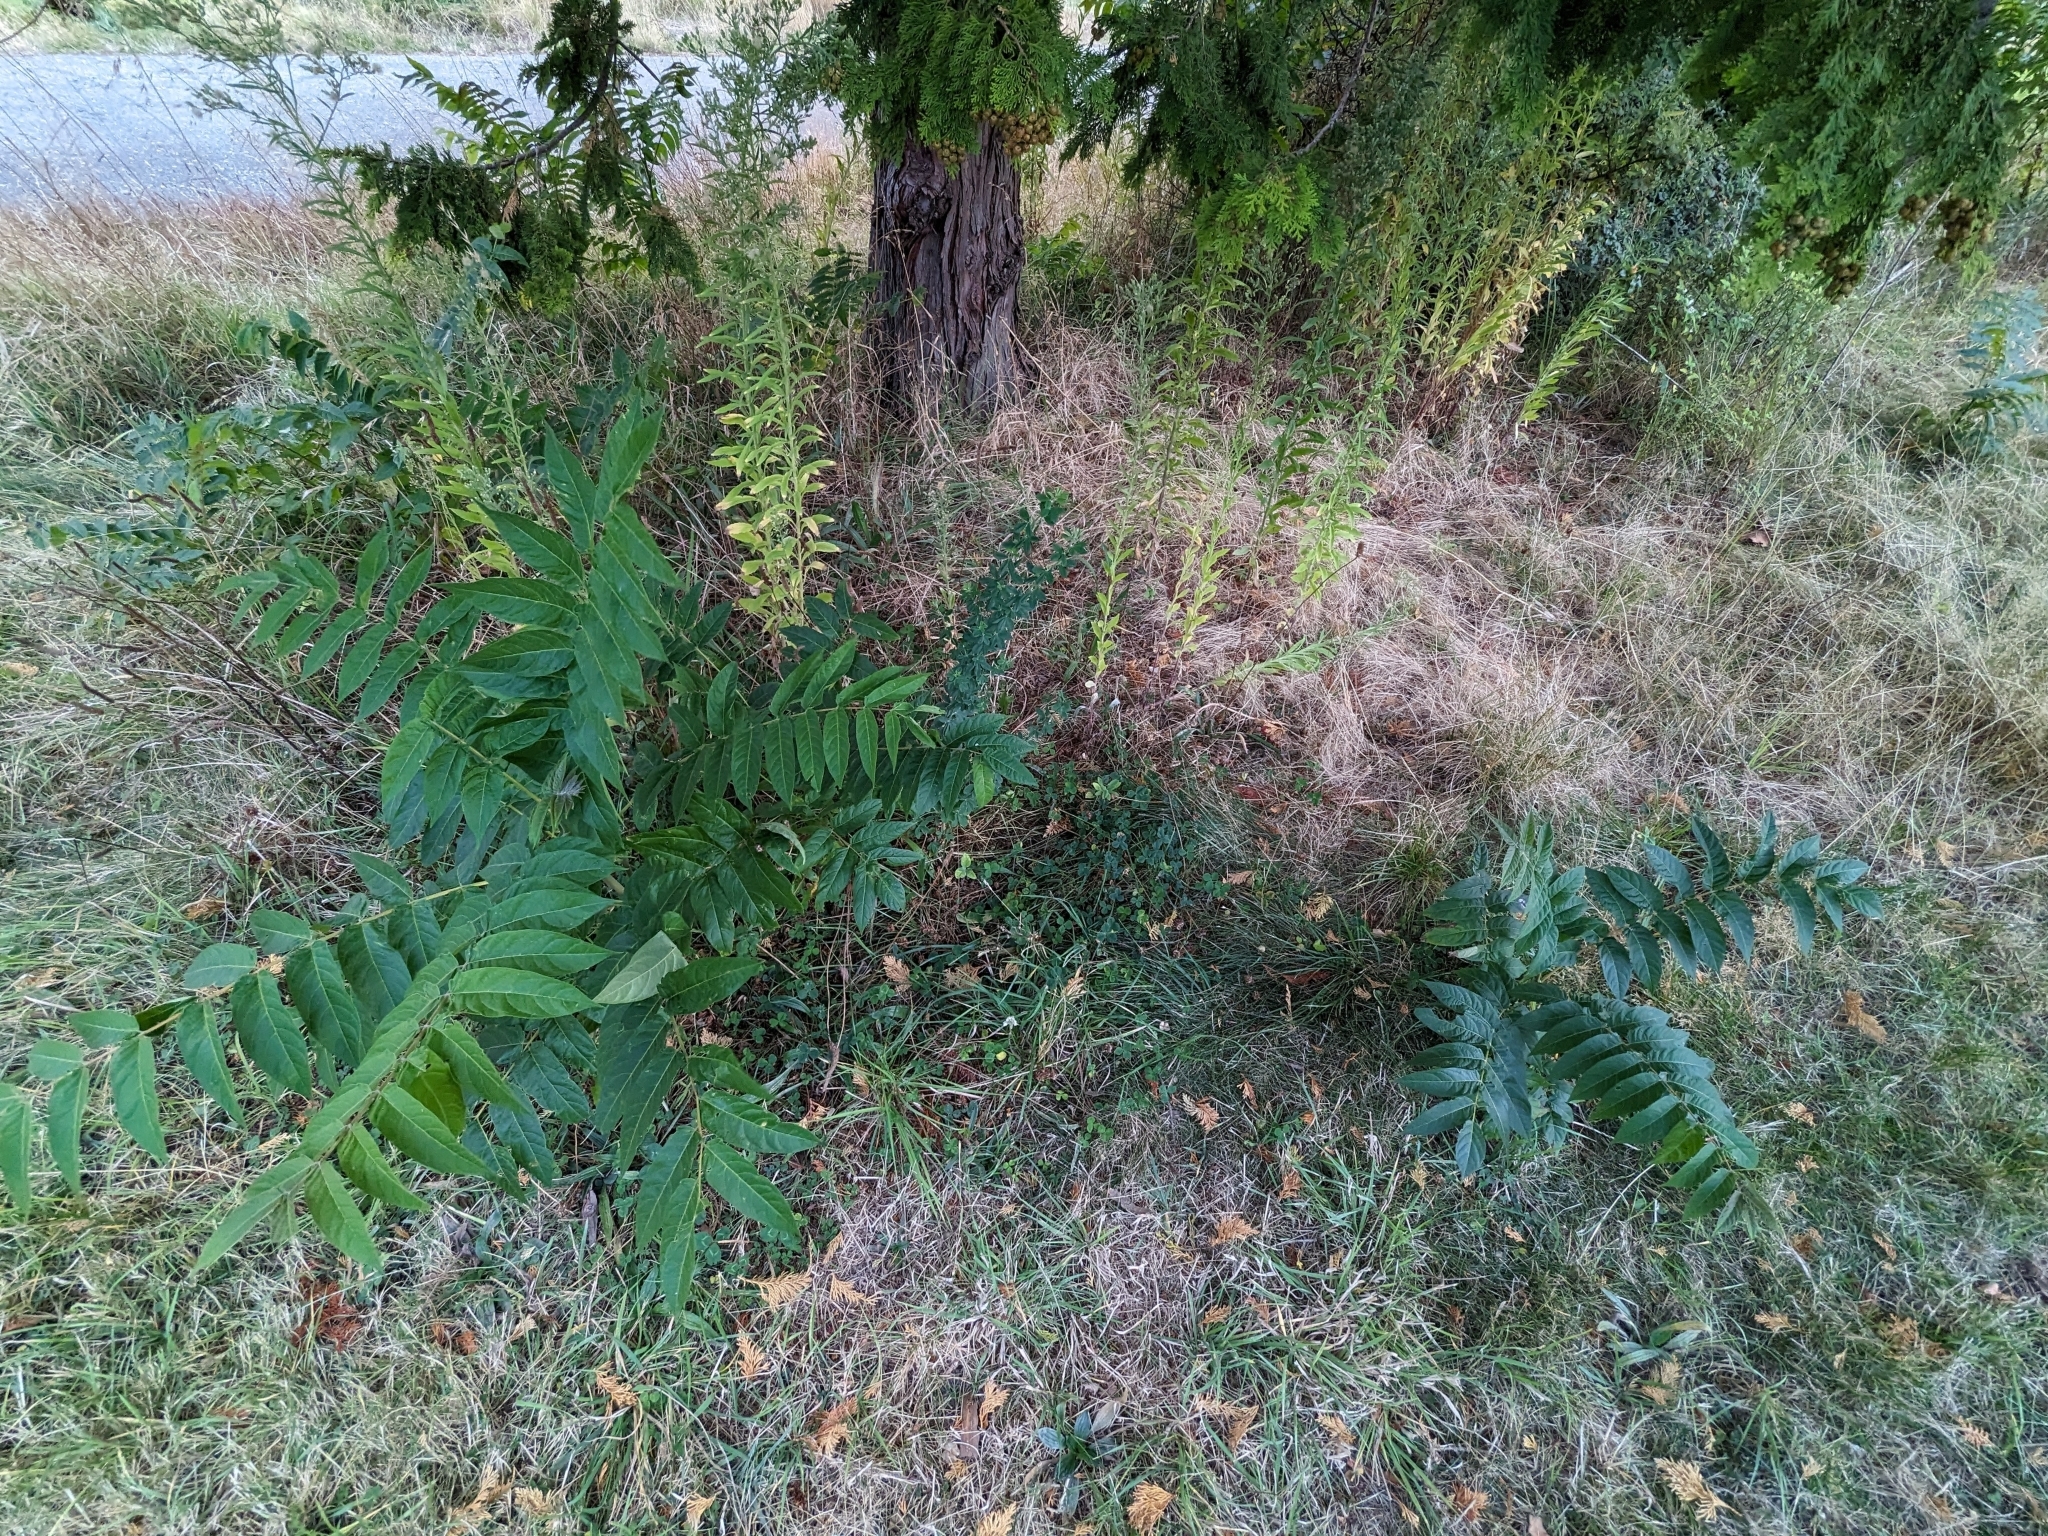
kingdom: Plantae
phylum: Tracheophyta
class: Magnoliopsida
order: Sapindales
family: Simaroubaceae
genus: Ailanthus
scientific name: Ailanthus altissima
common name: Tree-of-heaven
